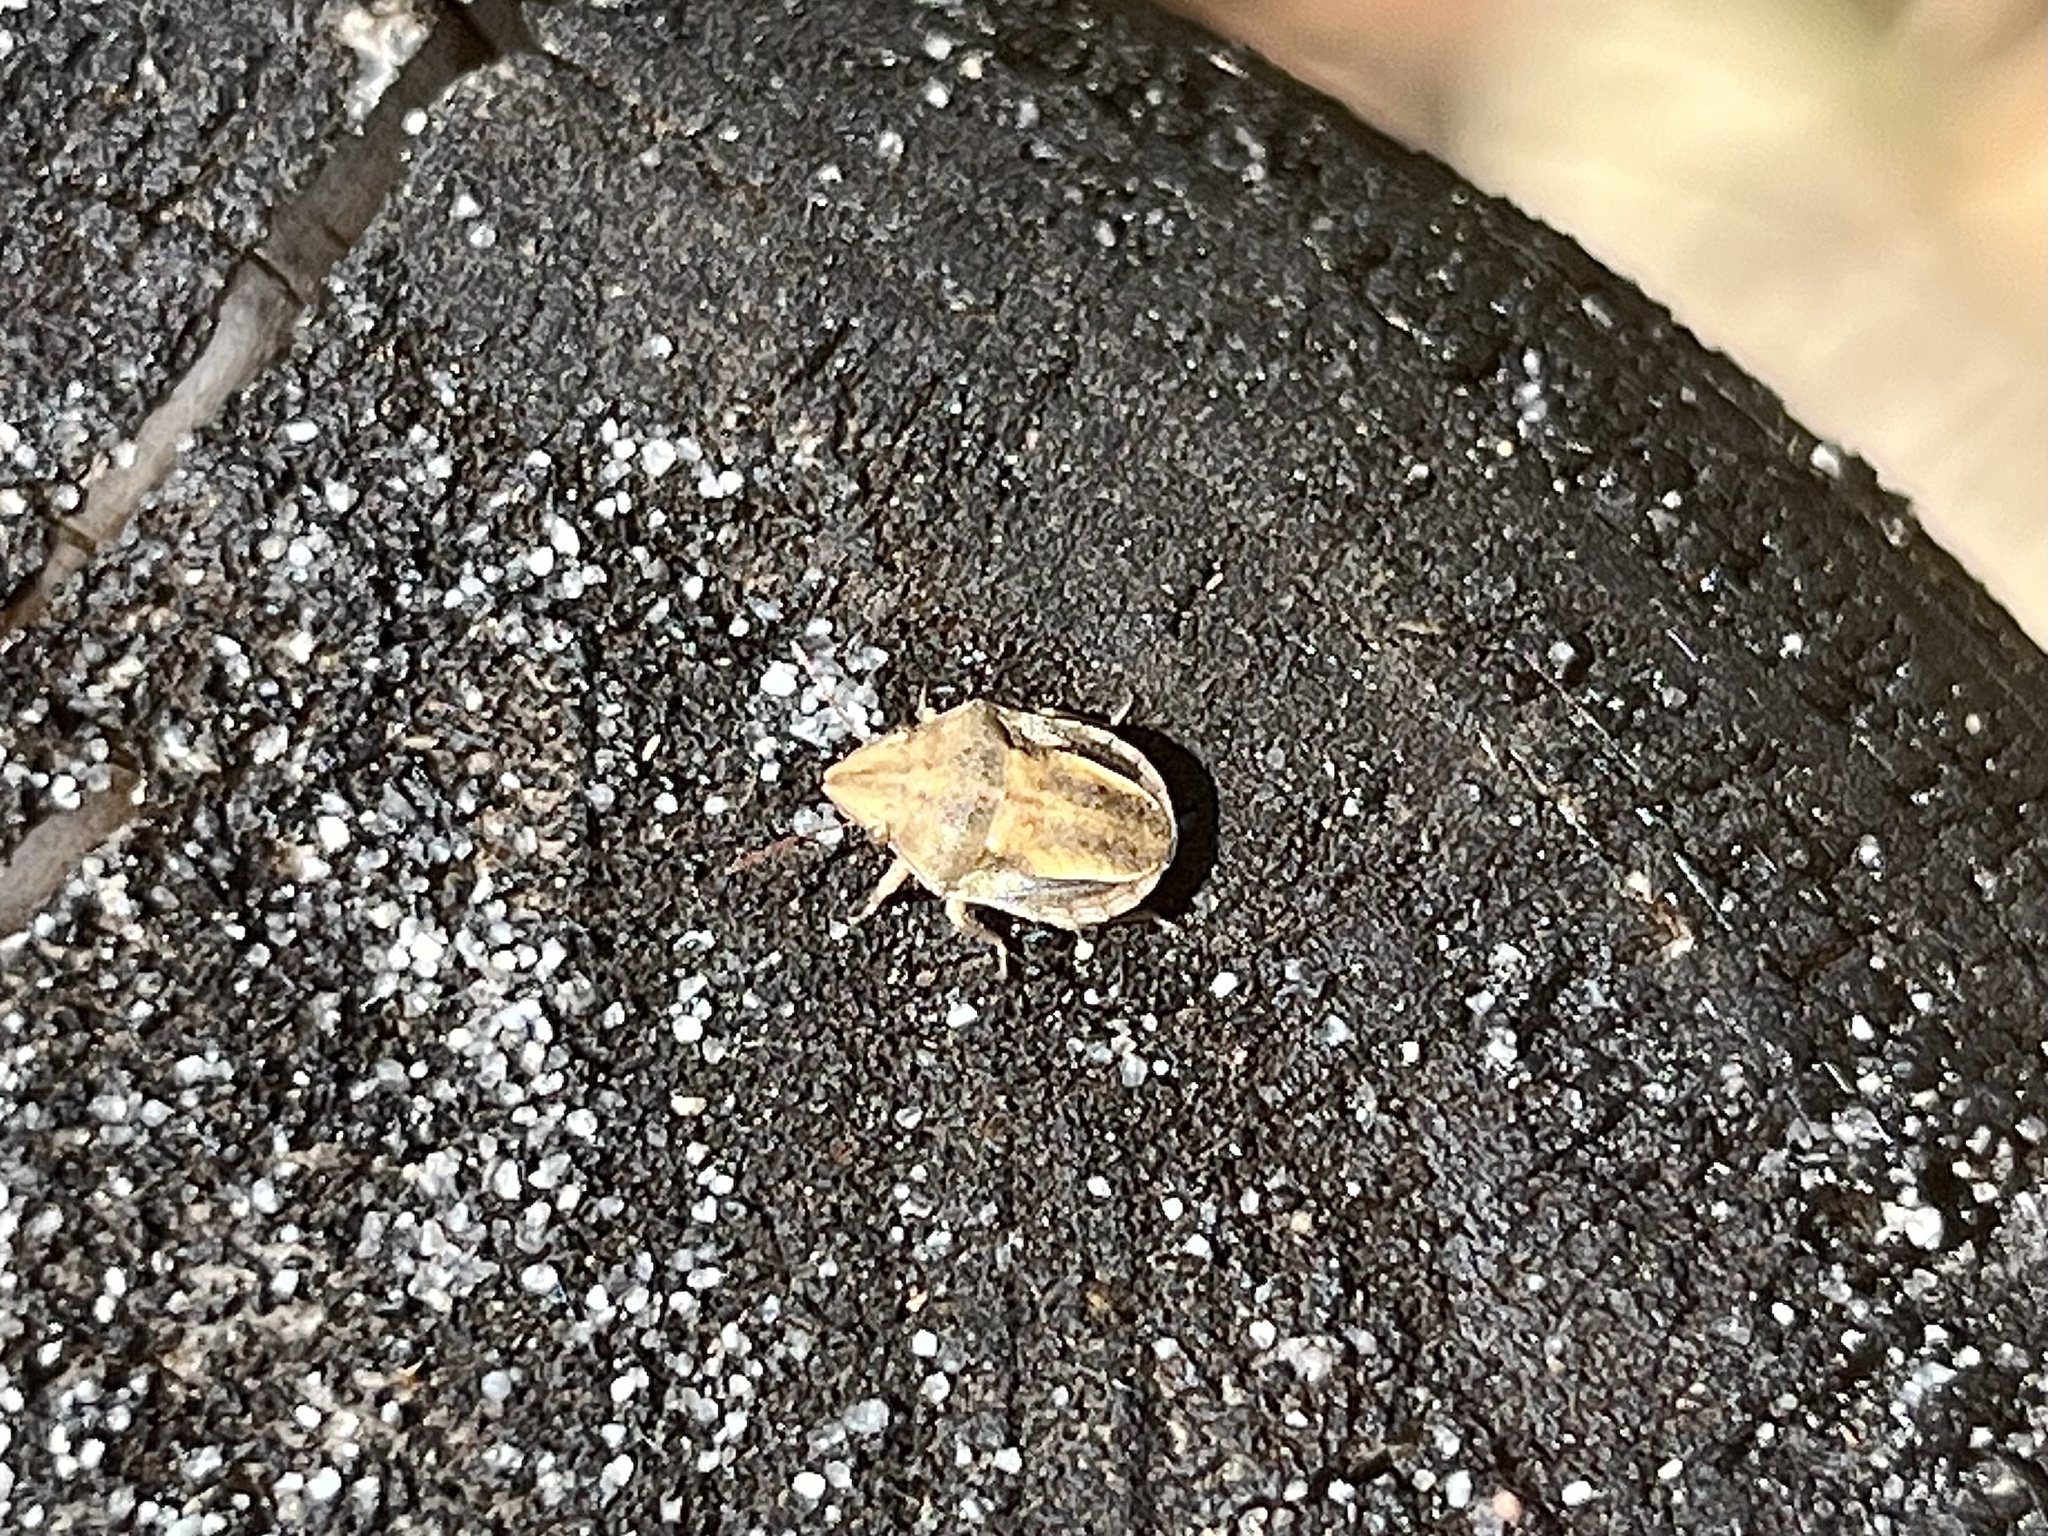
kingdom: Animalia
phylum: Arthropoda
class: Insecta
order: Hemiptera
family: Pentatomidae
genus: Macrocarenoides
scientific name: Macrocarenoides
